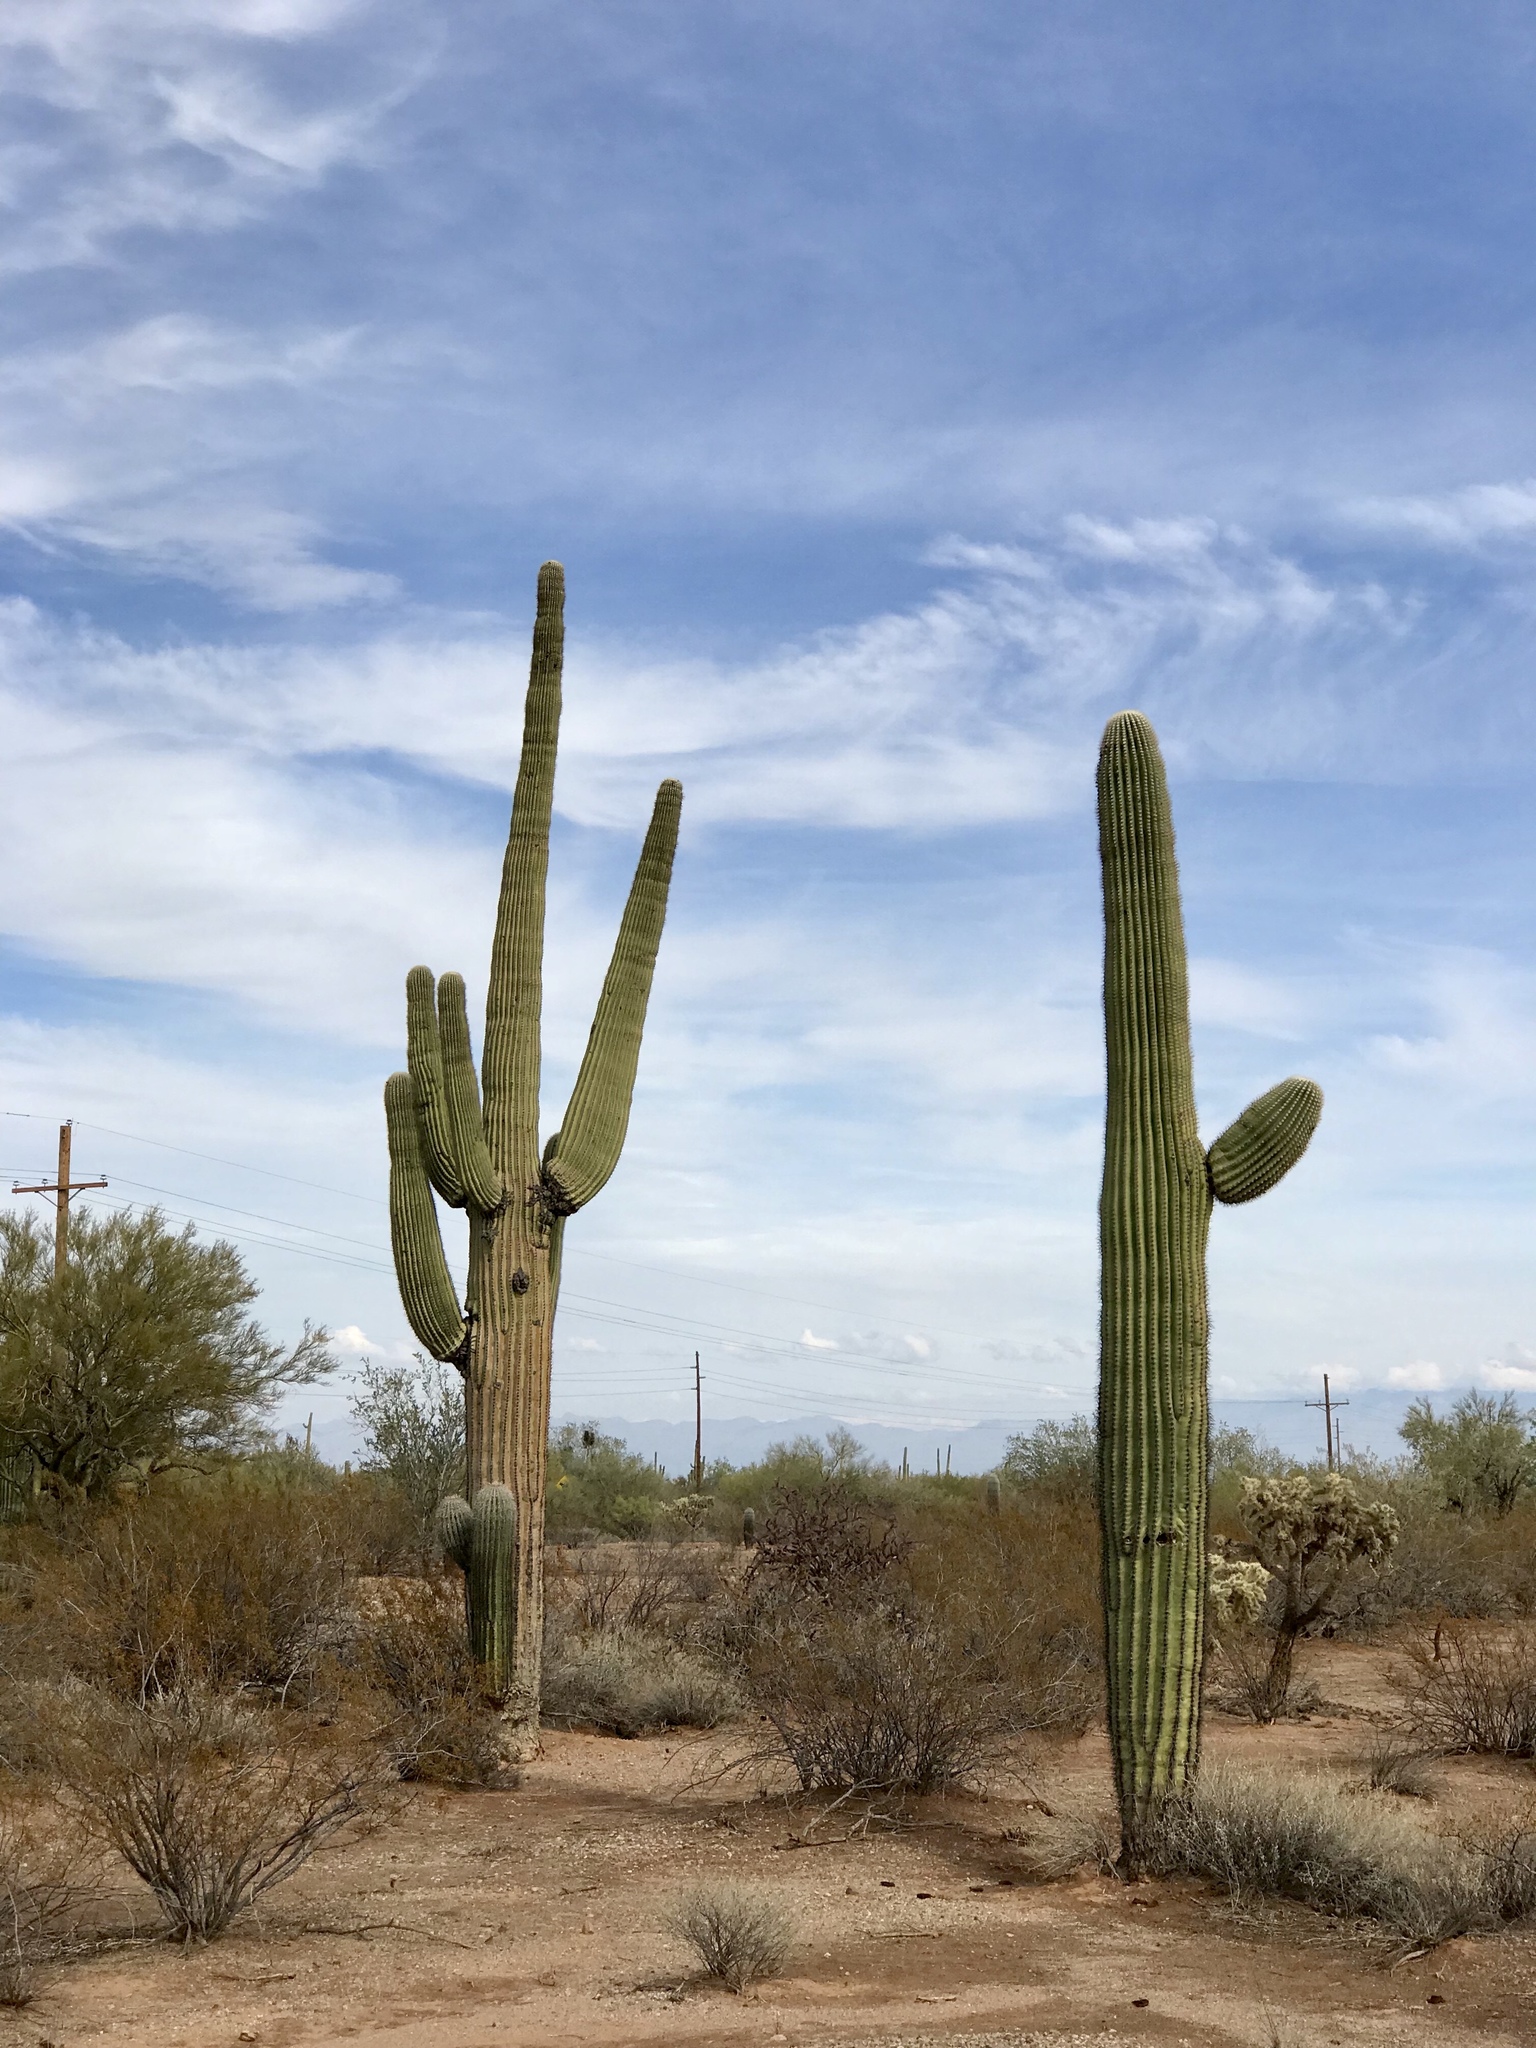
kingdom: Plantae
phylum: Tracheophyta
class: Magnoliopsida
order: Caryophyllales
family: Cactaceae
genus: Carnegiea
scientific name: Carnegiea gigantea
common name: Saguaro
